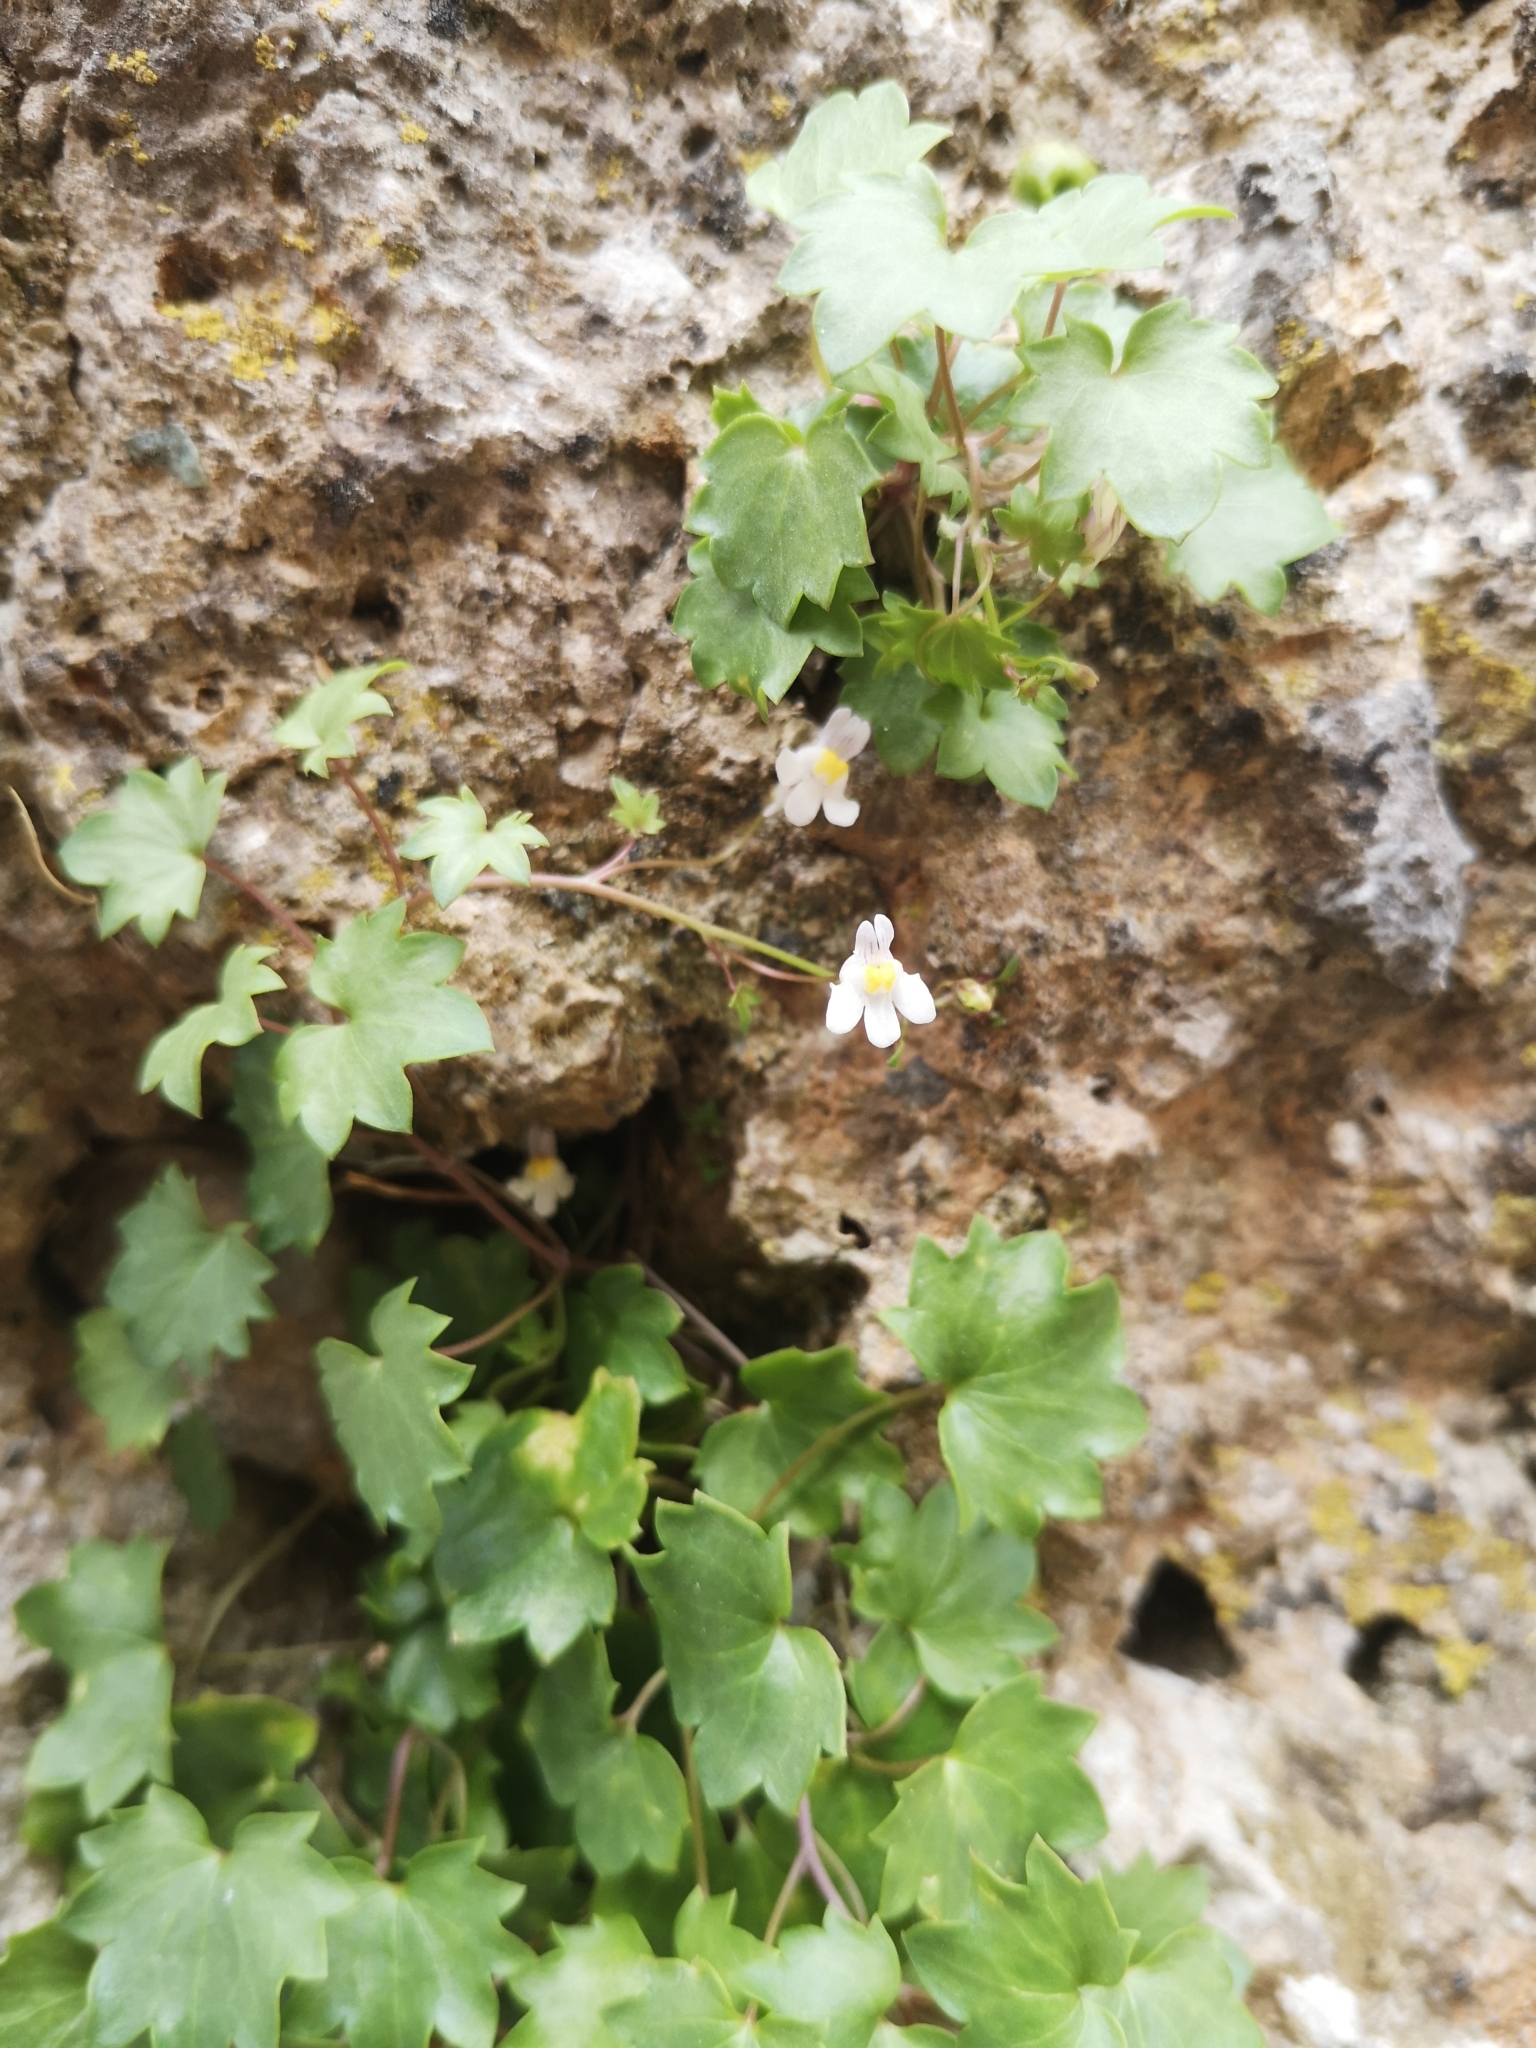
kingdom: Plantae
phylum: Tracheophyta
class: Magnoliopsida
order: Lamiales
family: Plantaginaceae
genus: Cymbalaria
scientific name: Cymbalaria muralis
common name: Ivy-leaved toadflax
